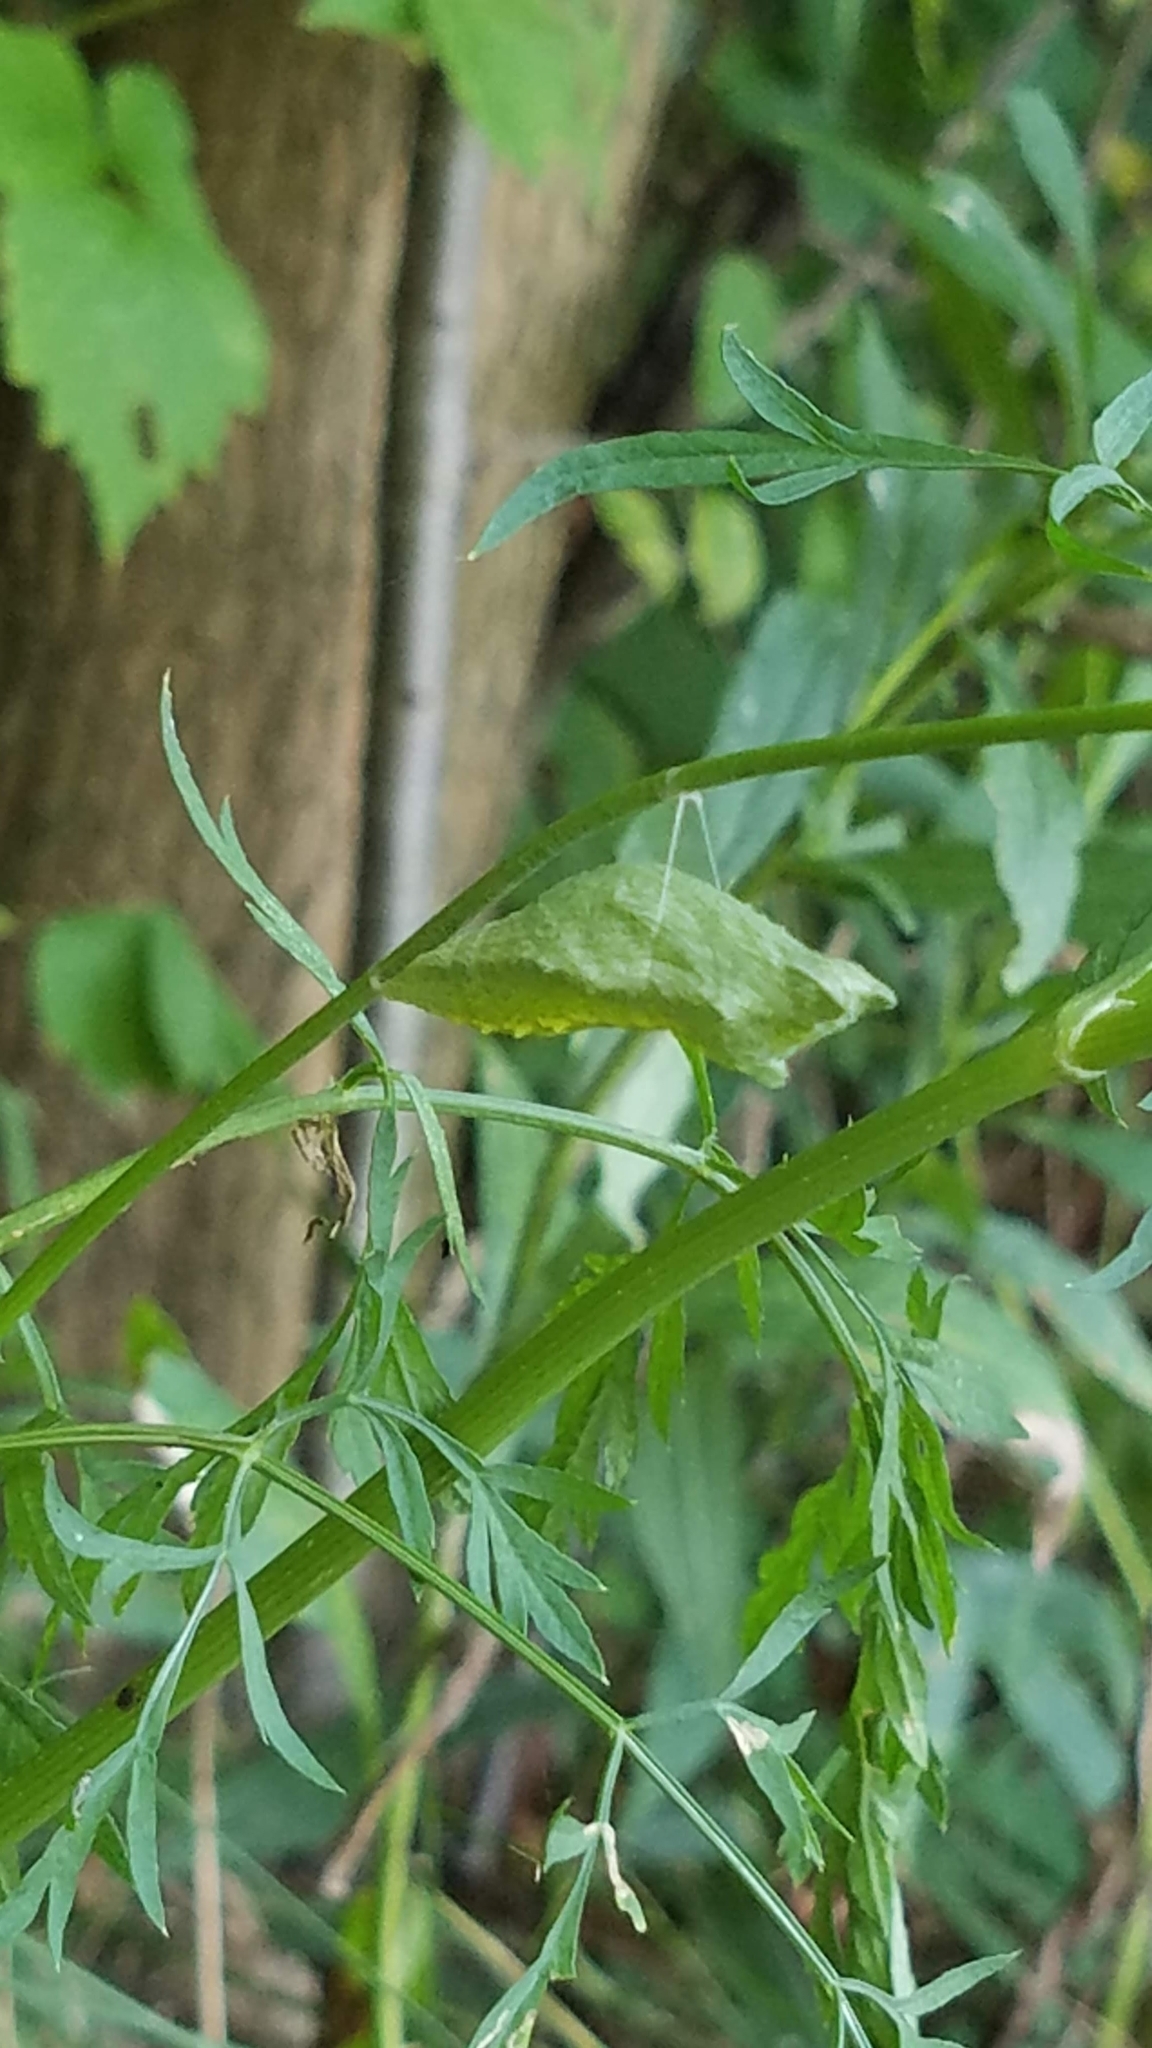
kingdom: Animalia
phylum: Arthropoda
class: Insecta
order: Lepidoptera
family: Papilionidae
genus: Papilio
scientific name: Papilio polyxenes
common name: Black swallowtail
